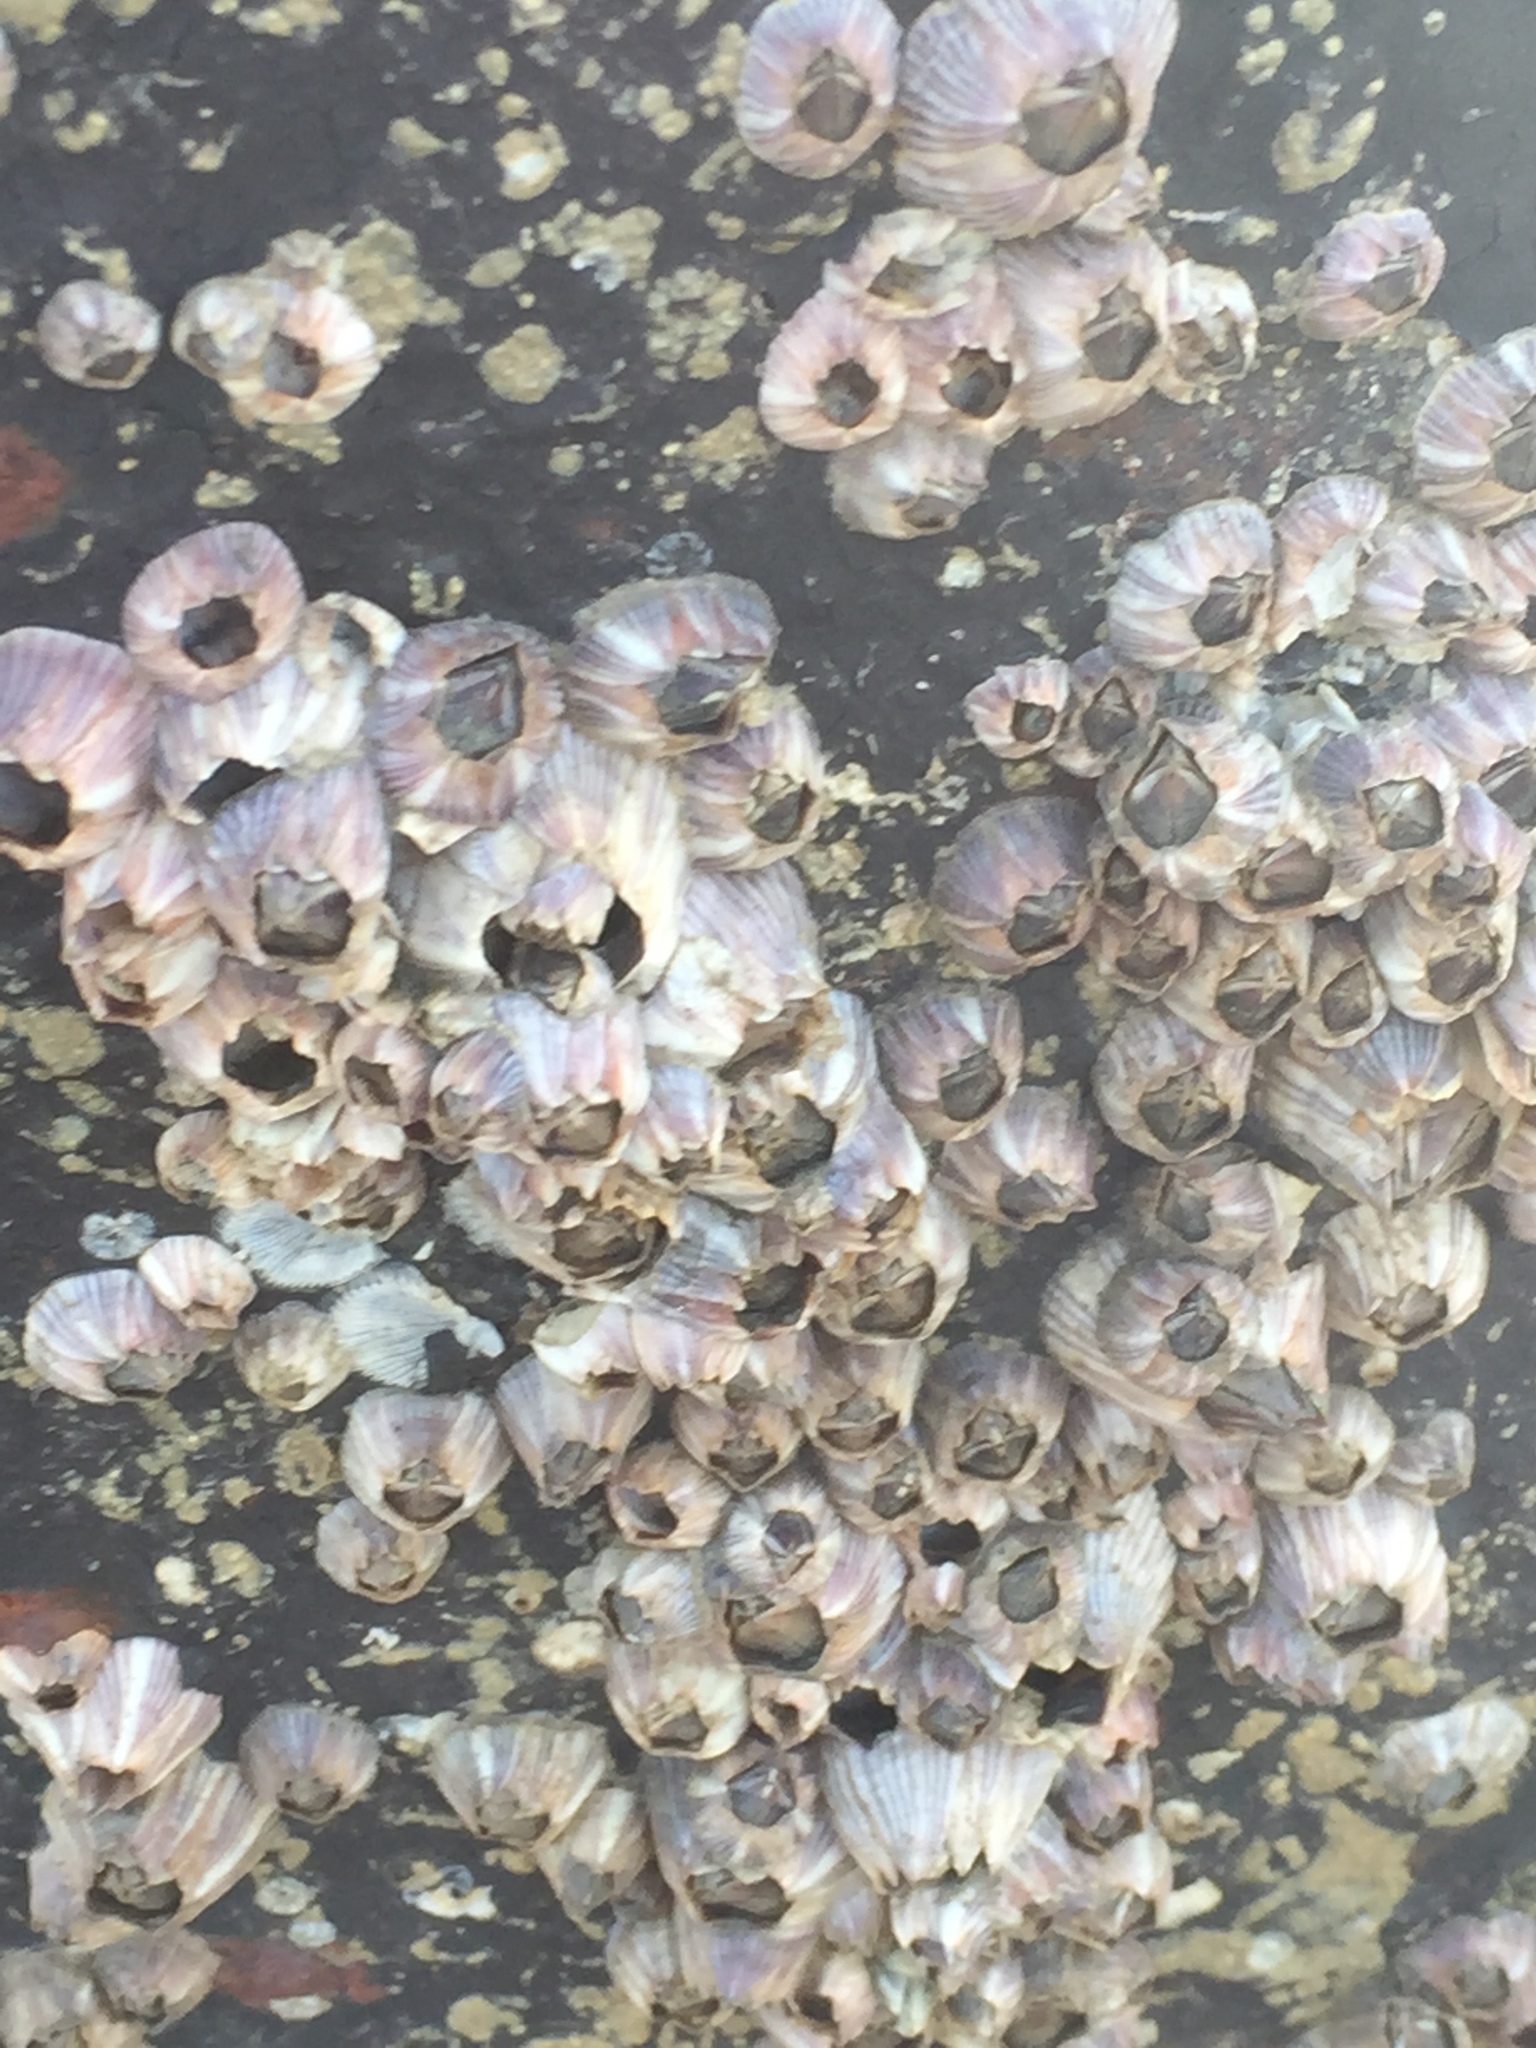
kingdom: Animalia
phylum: Arthropoda
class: Maxillopoda
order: Sessilia
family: Balanidae
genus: Amphibalanus
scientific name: Amphibalanus amphitrite
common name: Striped acorn barnacle
